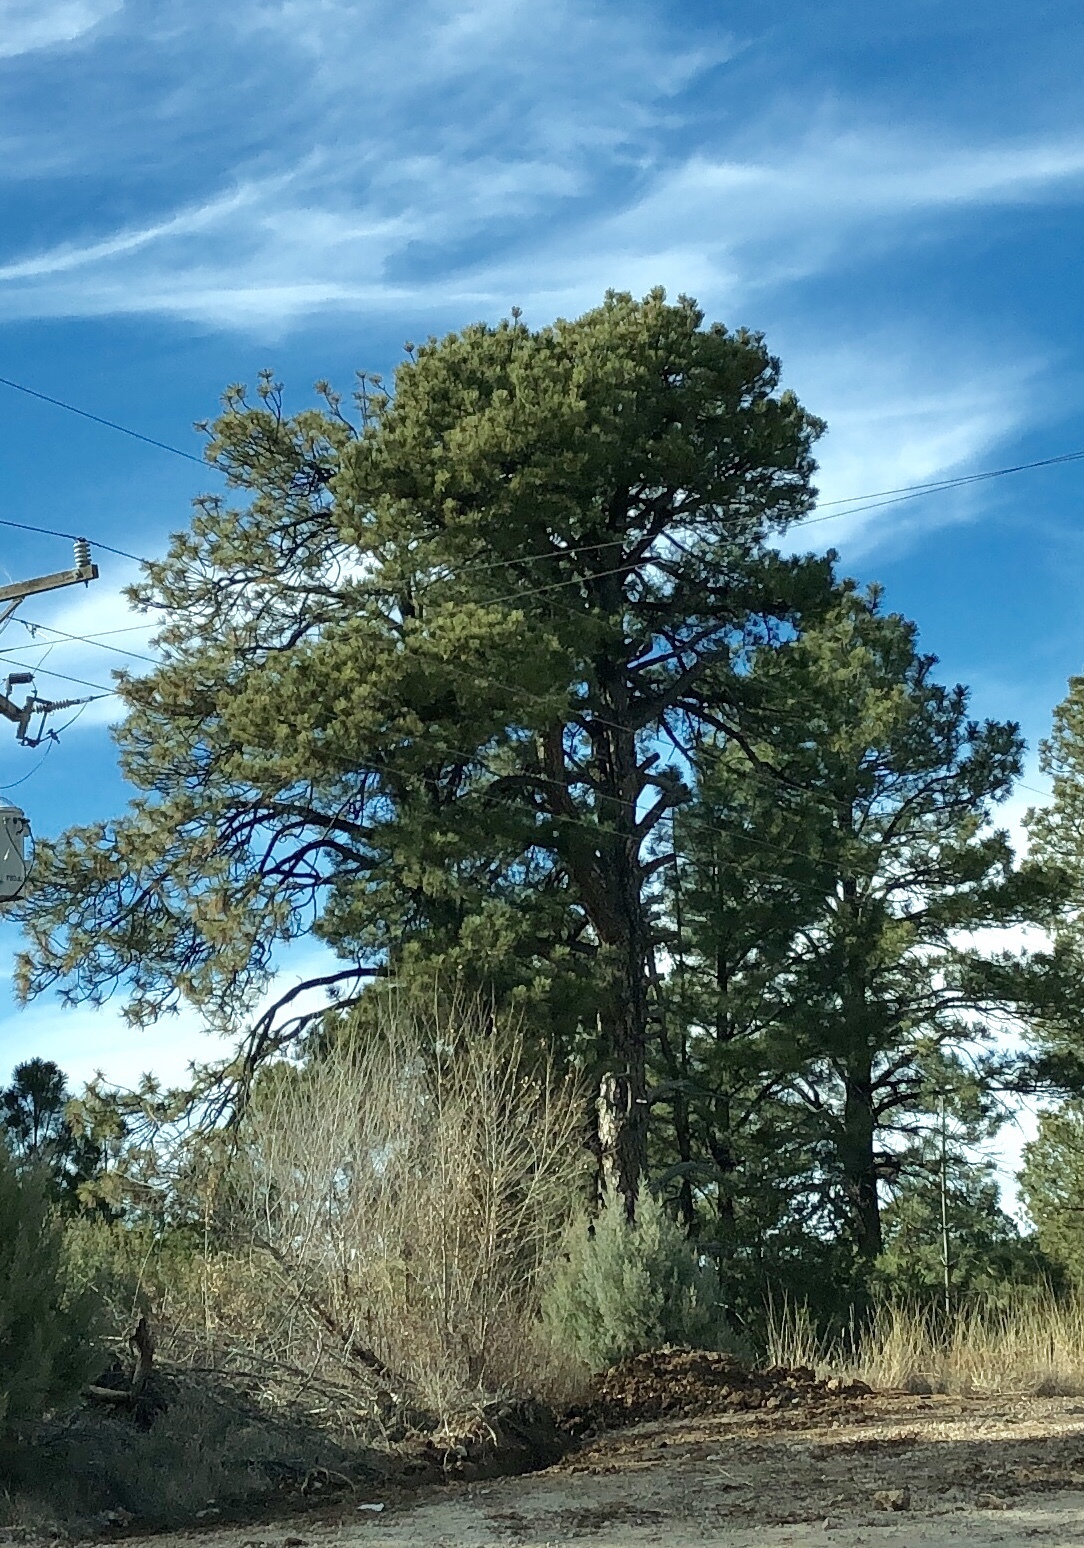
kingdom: Plantae
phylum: Tracheophyta
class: Pinopsida
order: Pinales
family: Pinaceae
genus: Pinus
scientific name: Pinus ponderosa
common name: Western yellow-pine
